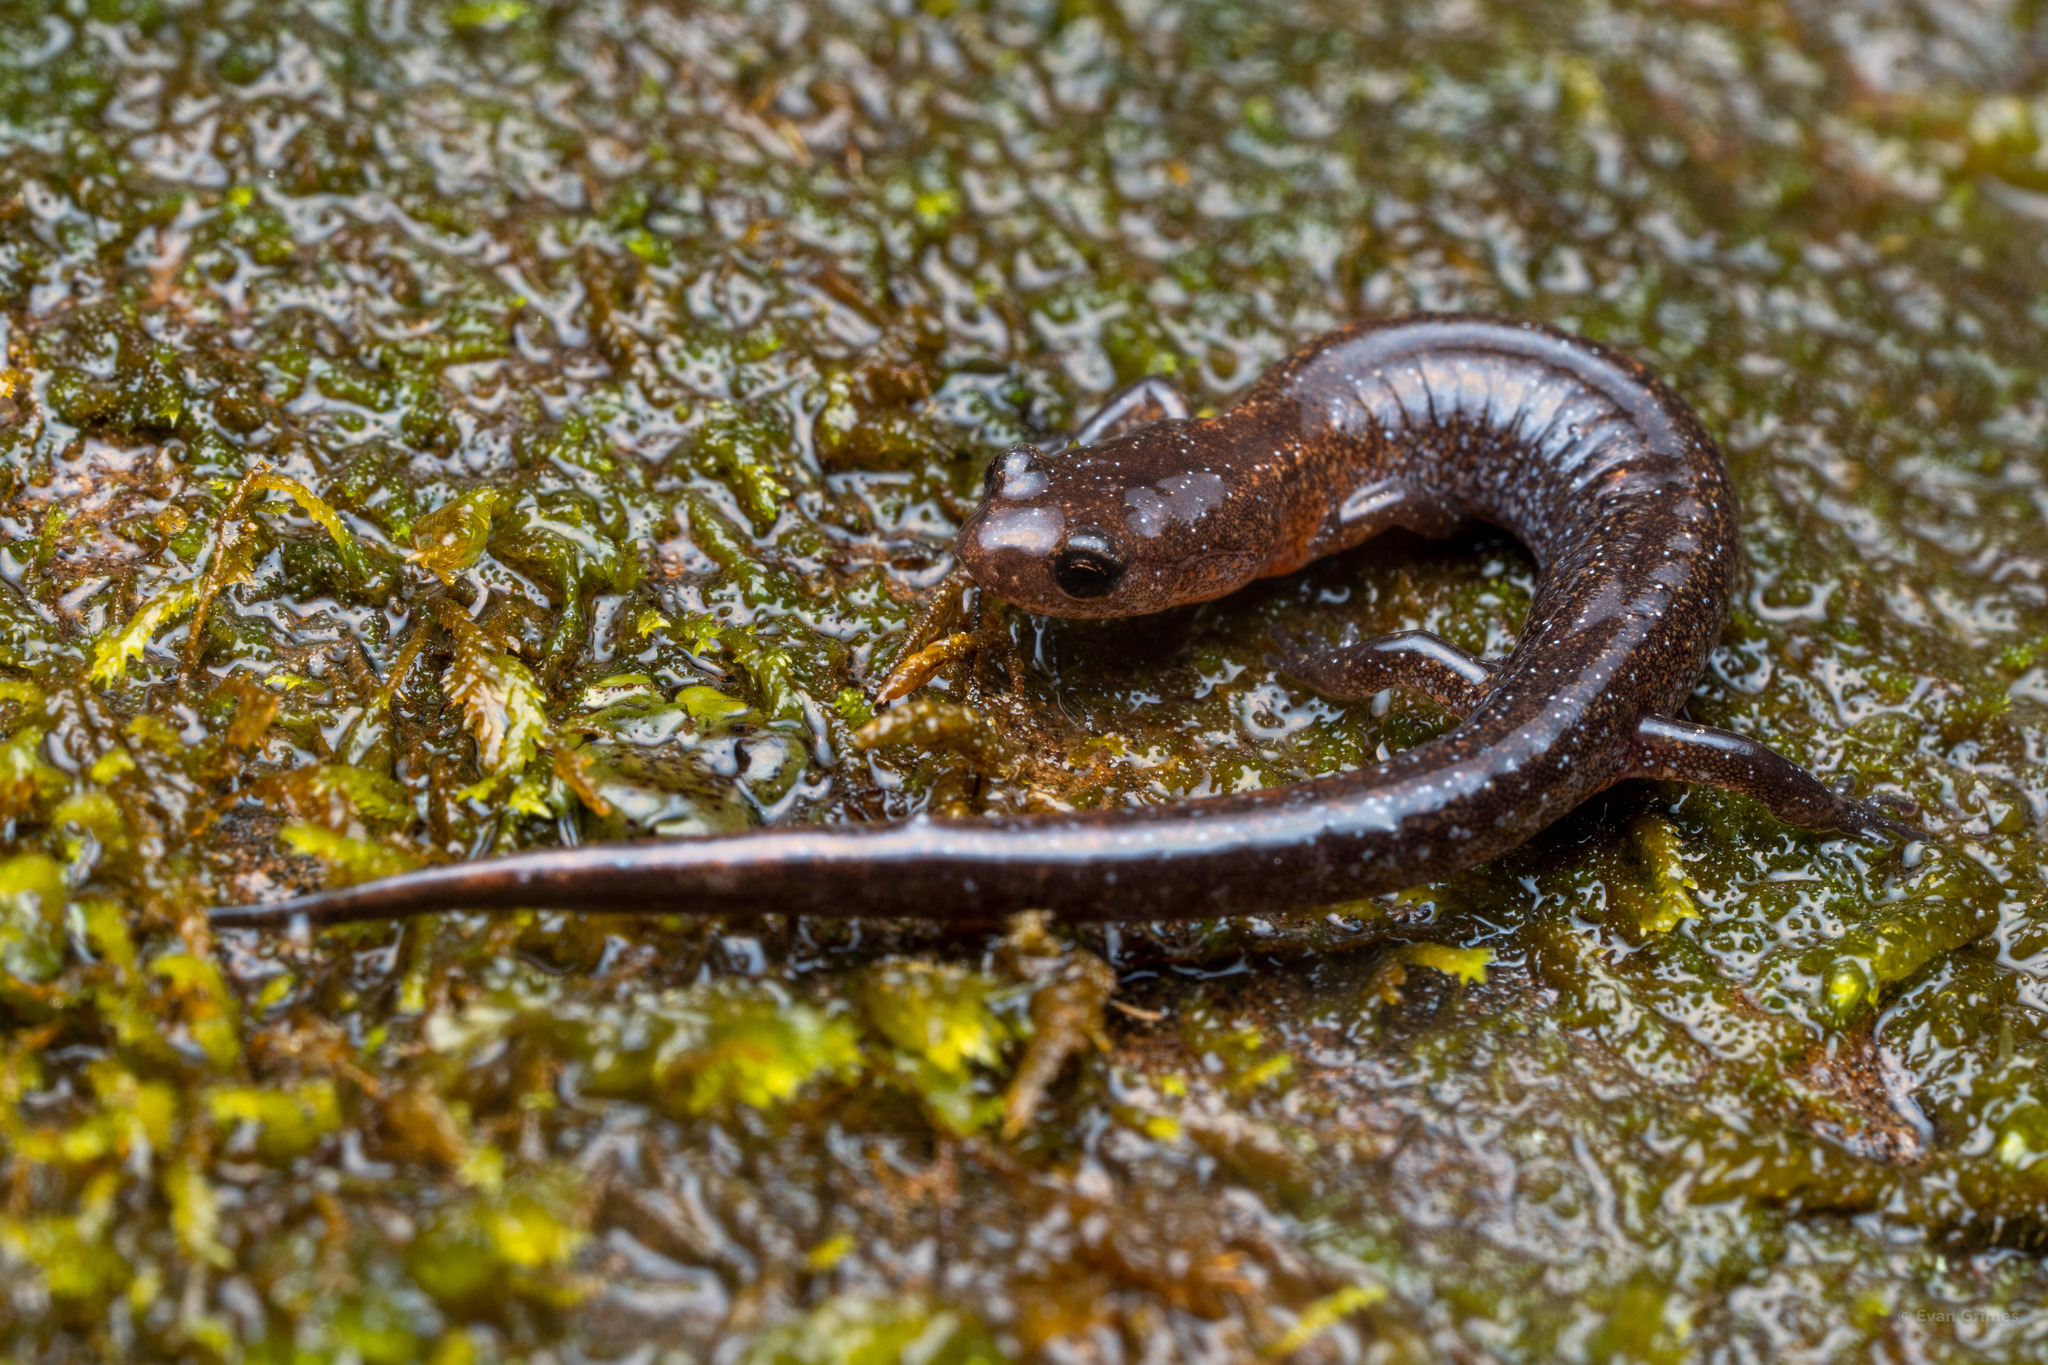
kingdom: Animalia
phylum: Chordata
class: Amphibia
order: Caudata
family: Plethodontidae
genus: Plethodon
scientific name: Plethodon ventralis
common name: Southern zigzag salamander
